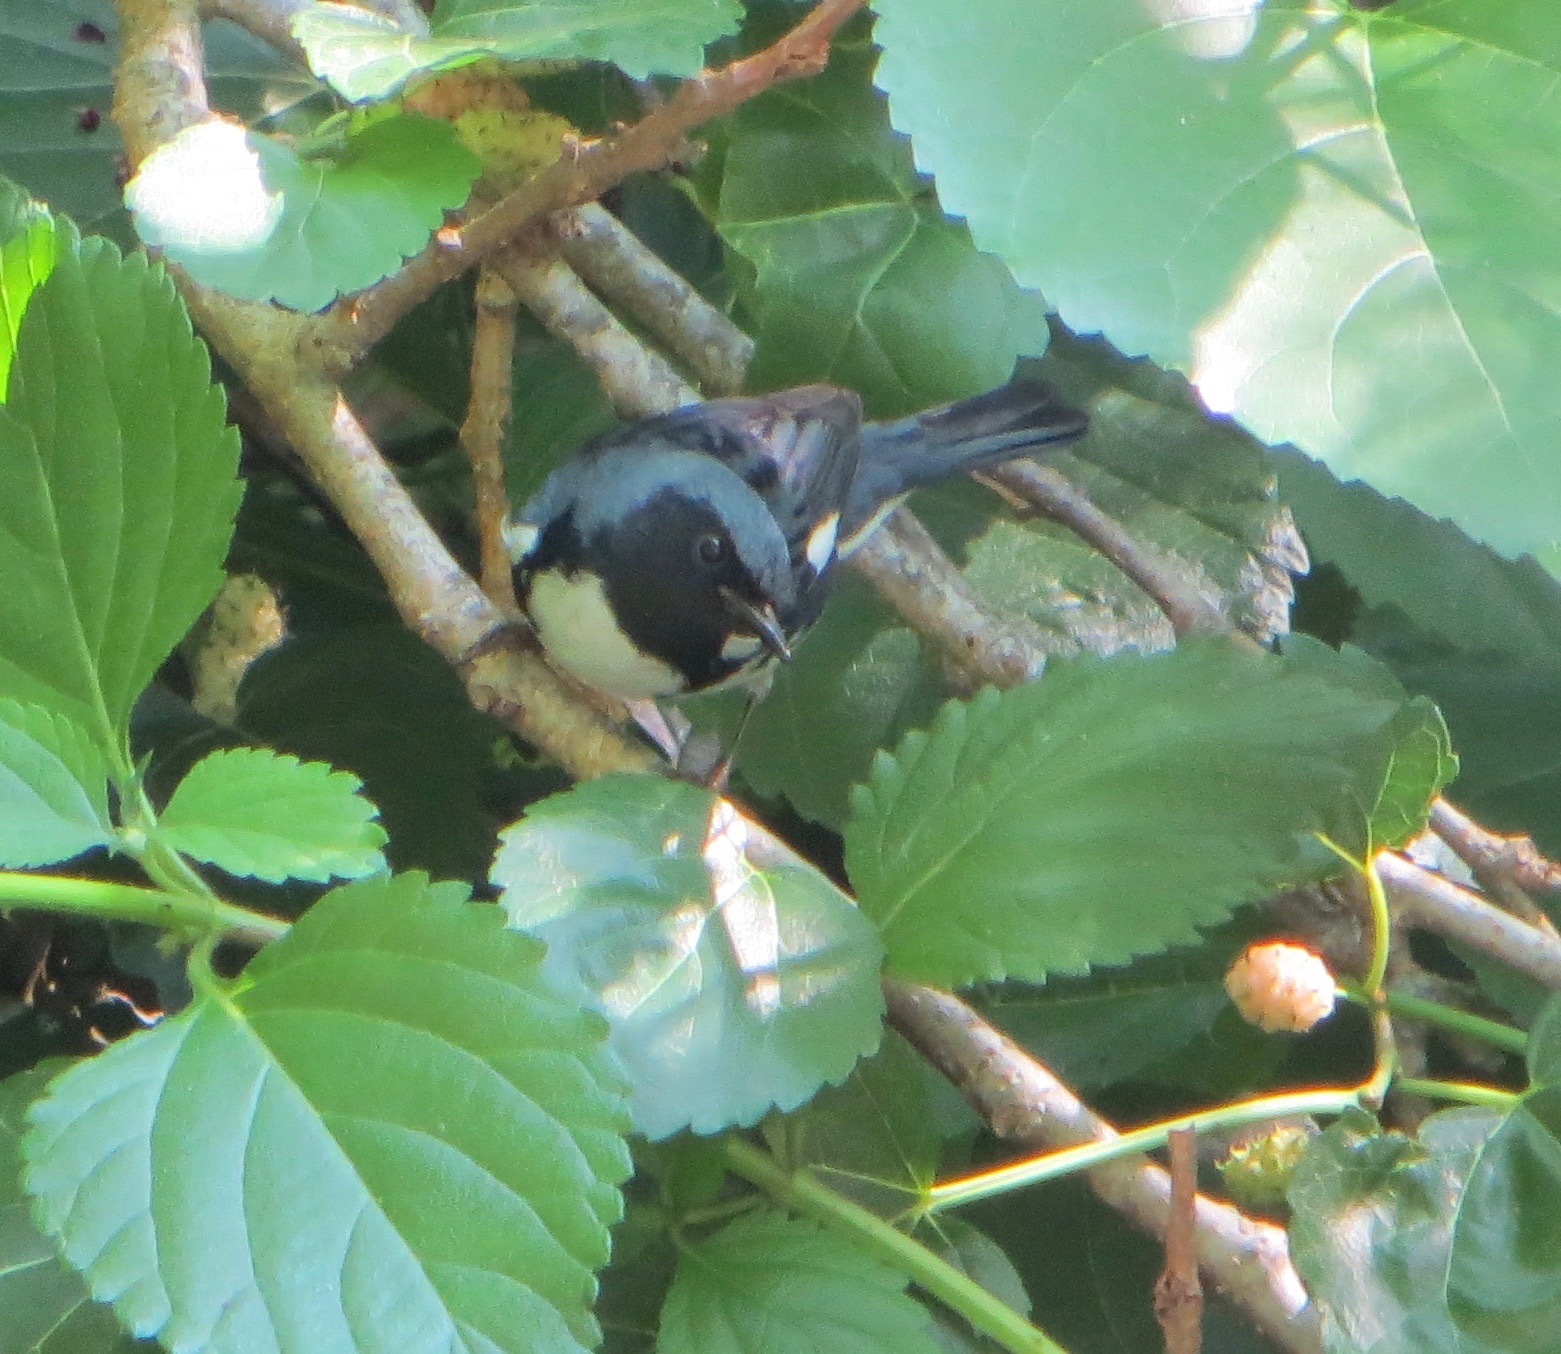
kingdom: Animalia
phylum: Chordata
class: Aves
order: Passeriformes
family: Parulidae
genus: Setophaga
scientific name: Setophaga caerulescens
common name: Black-throated blue warbler
